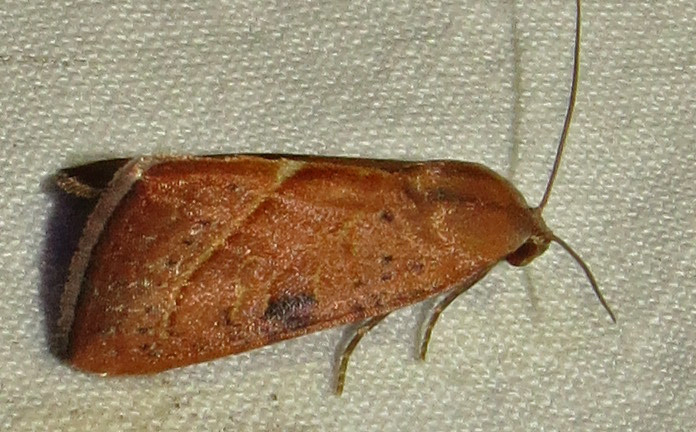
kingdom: Animalia
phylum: Arthropoda
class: Insecta
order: Lepidoptera
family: Noctuidae
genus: Galgula
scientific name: Galgula partita
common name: Wedgeling
